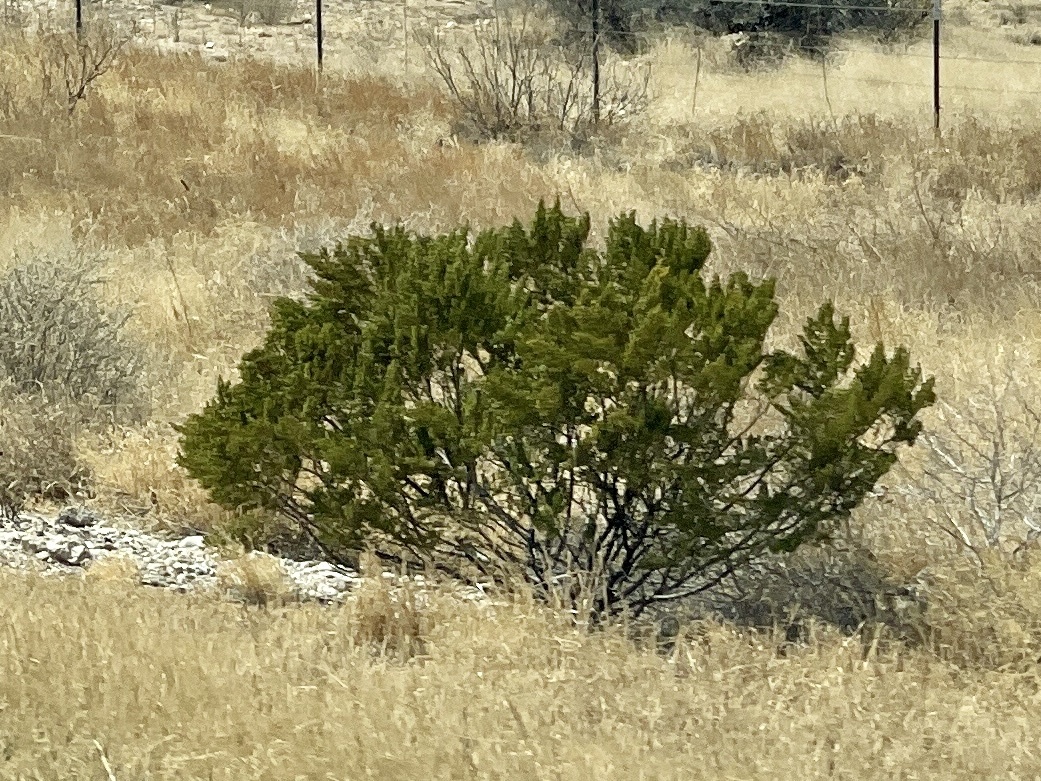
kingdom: Plantae
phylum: Tracheophyta
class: Magnoliopsida
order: Zygophyllales
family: Zygophyllaceae
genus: Larrea
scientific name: Larrea tridentata
